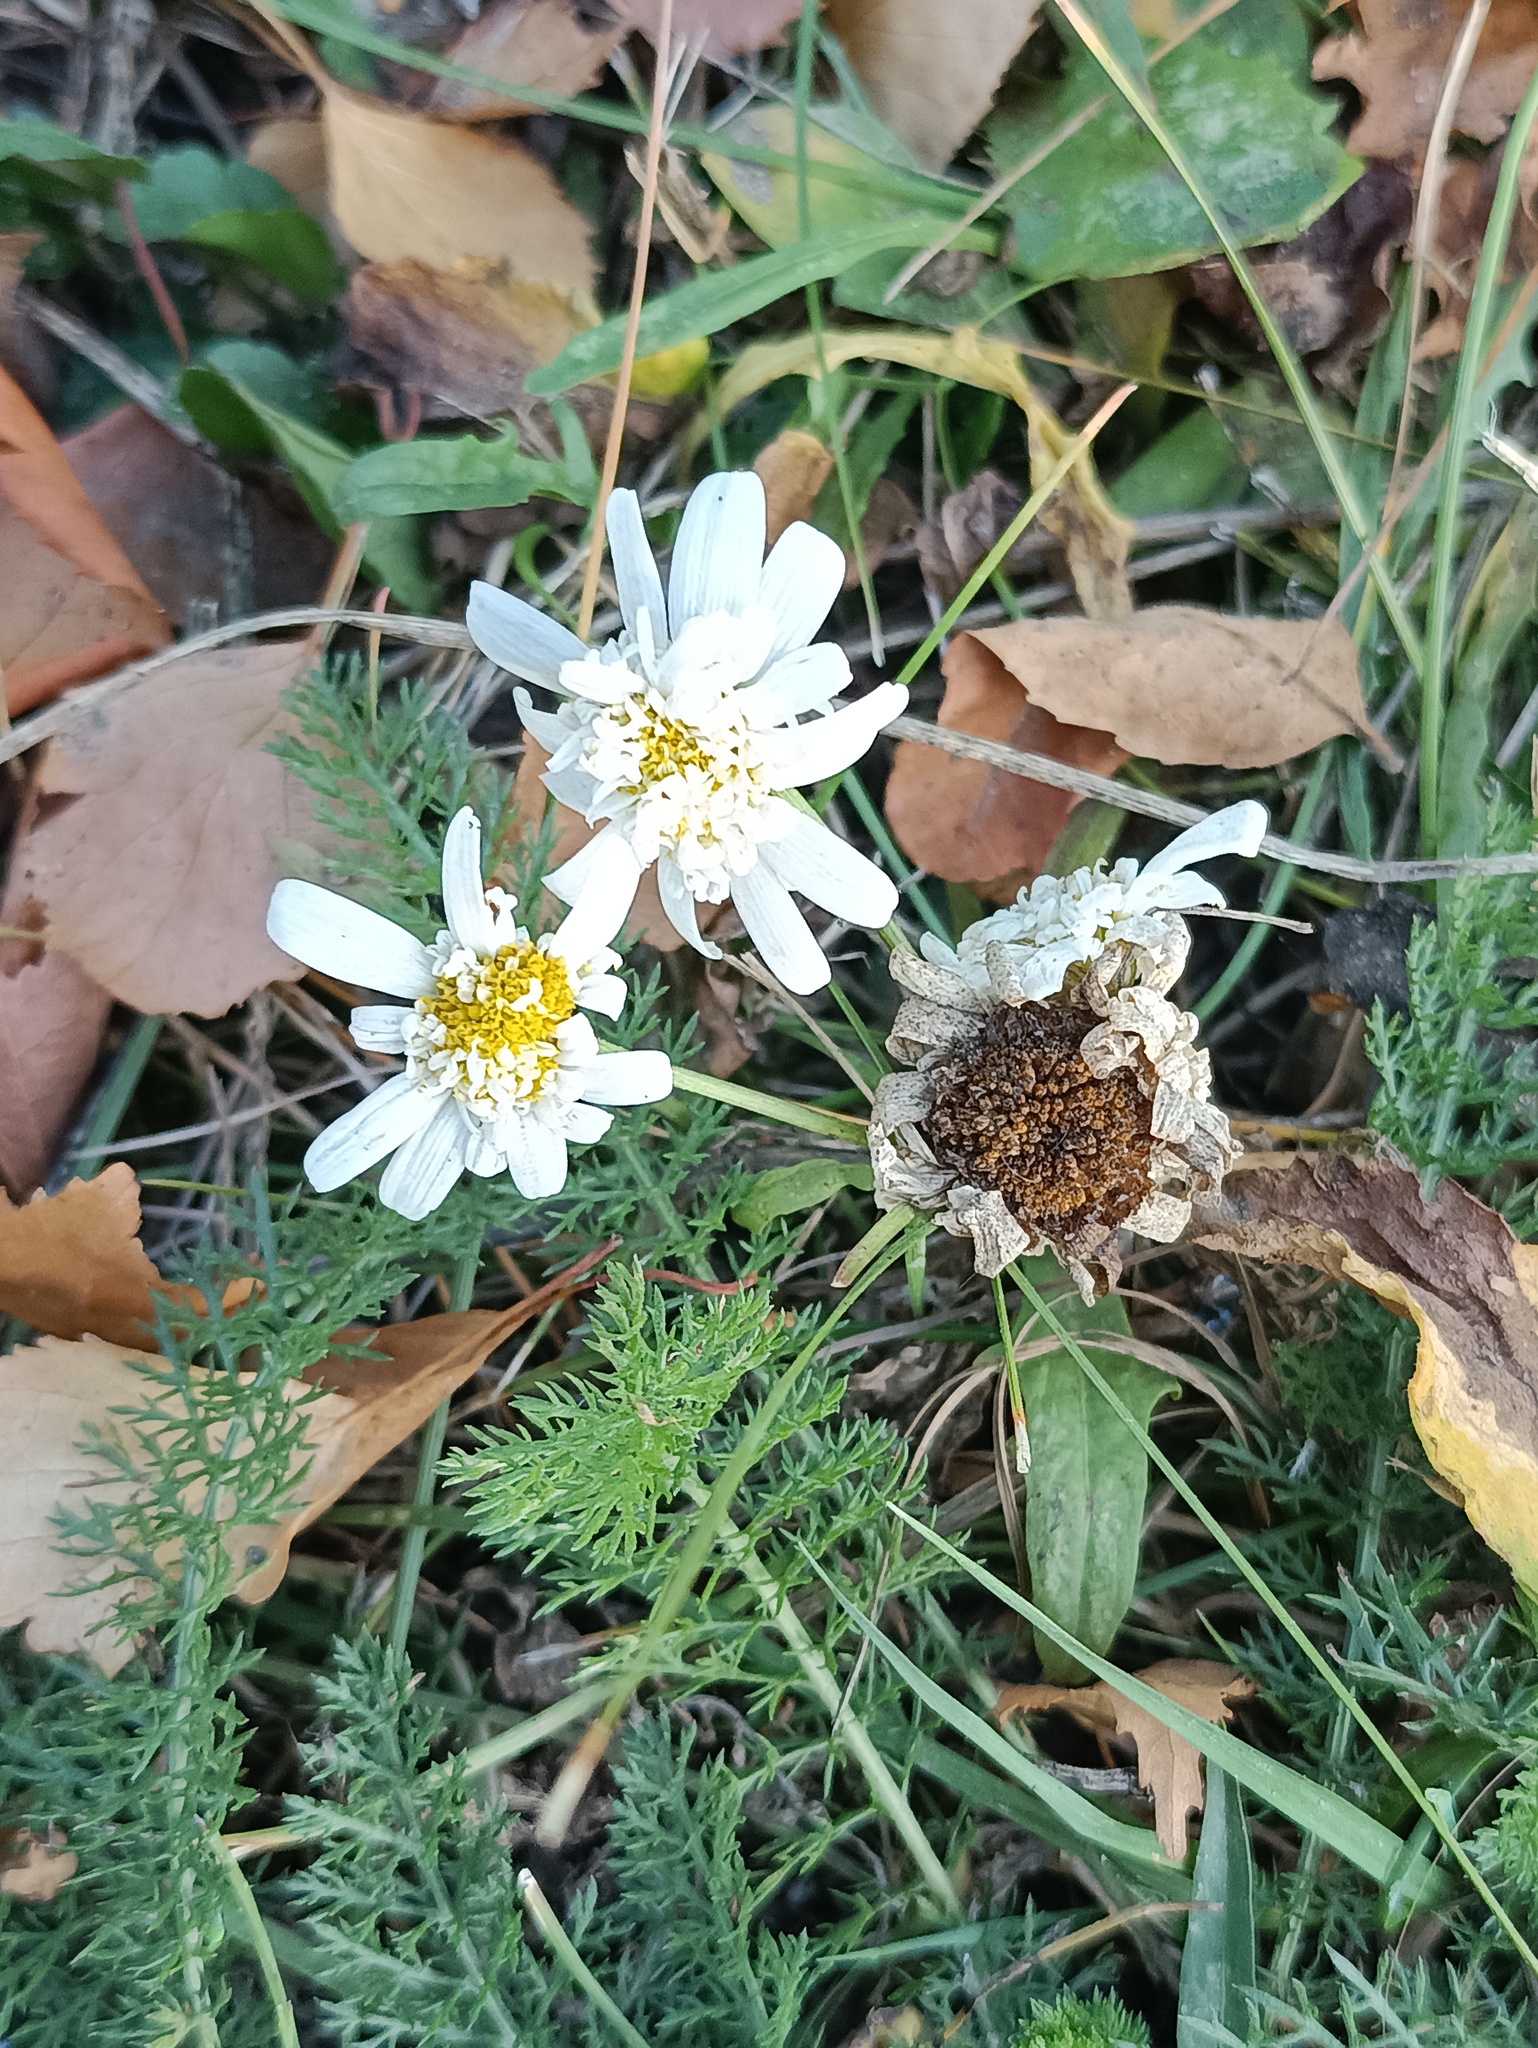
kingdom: Plantae
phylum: Tracheophyta
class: Magnoliopsida
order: Asterales
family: Asteraceae
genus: Tripleurospermum
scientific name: Tripleurospermum inodorum
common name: Scentless mayweed
